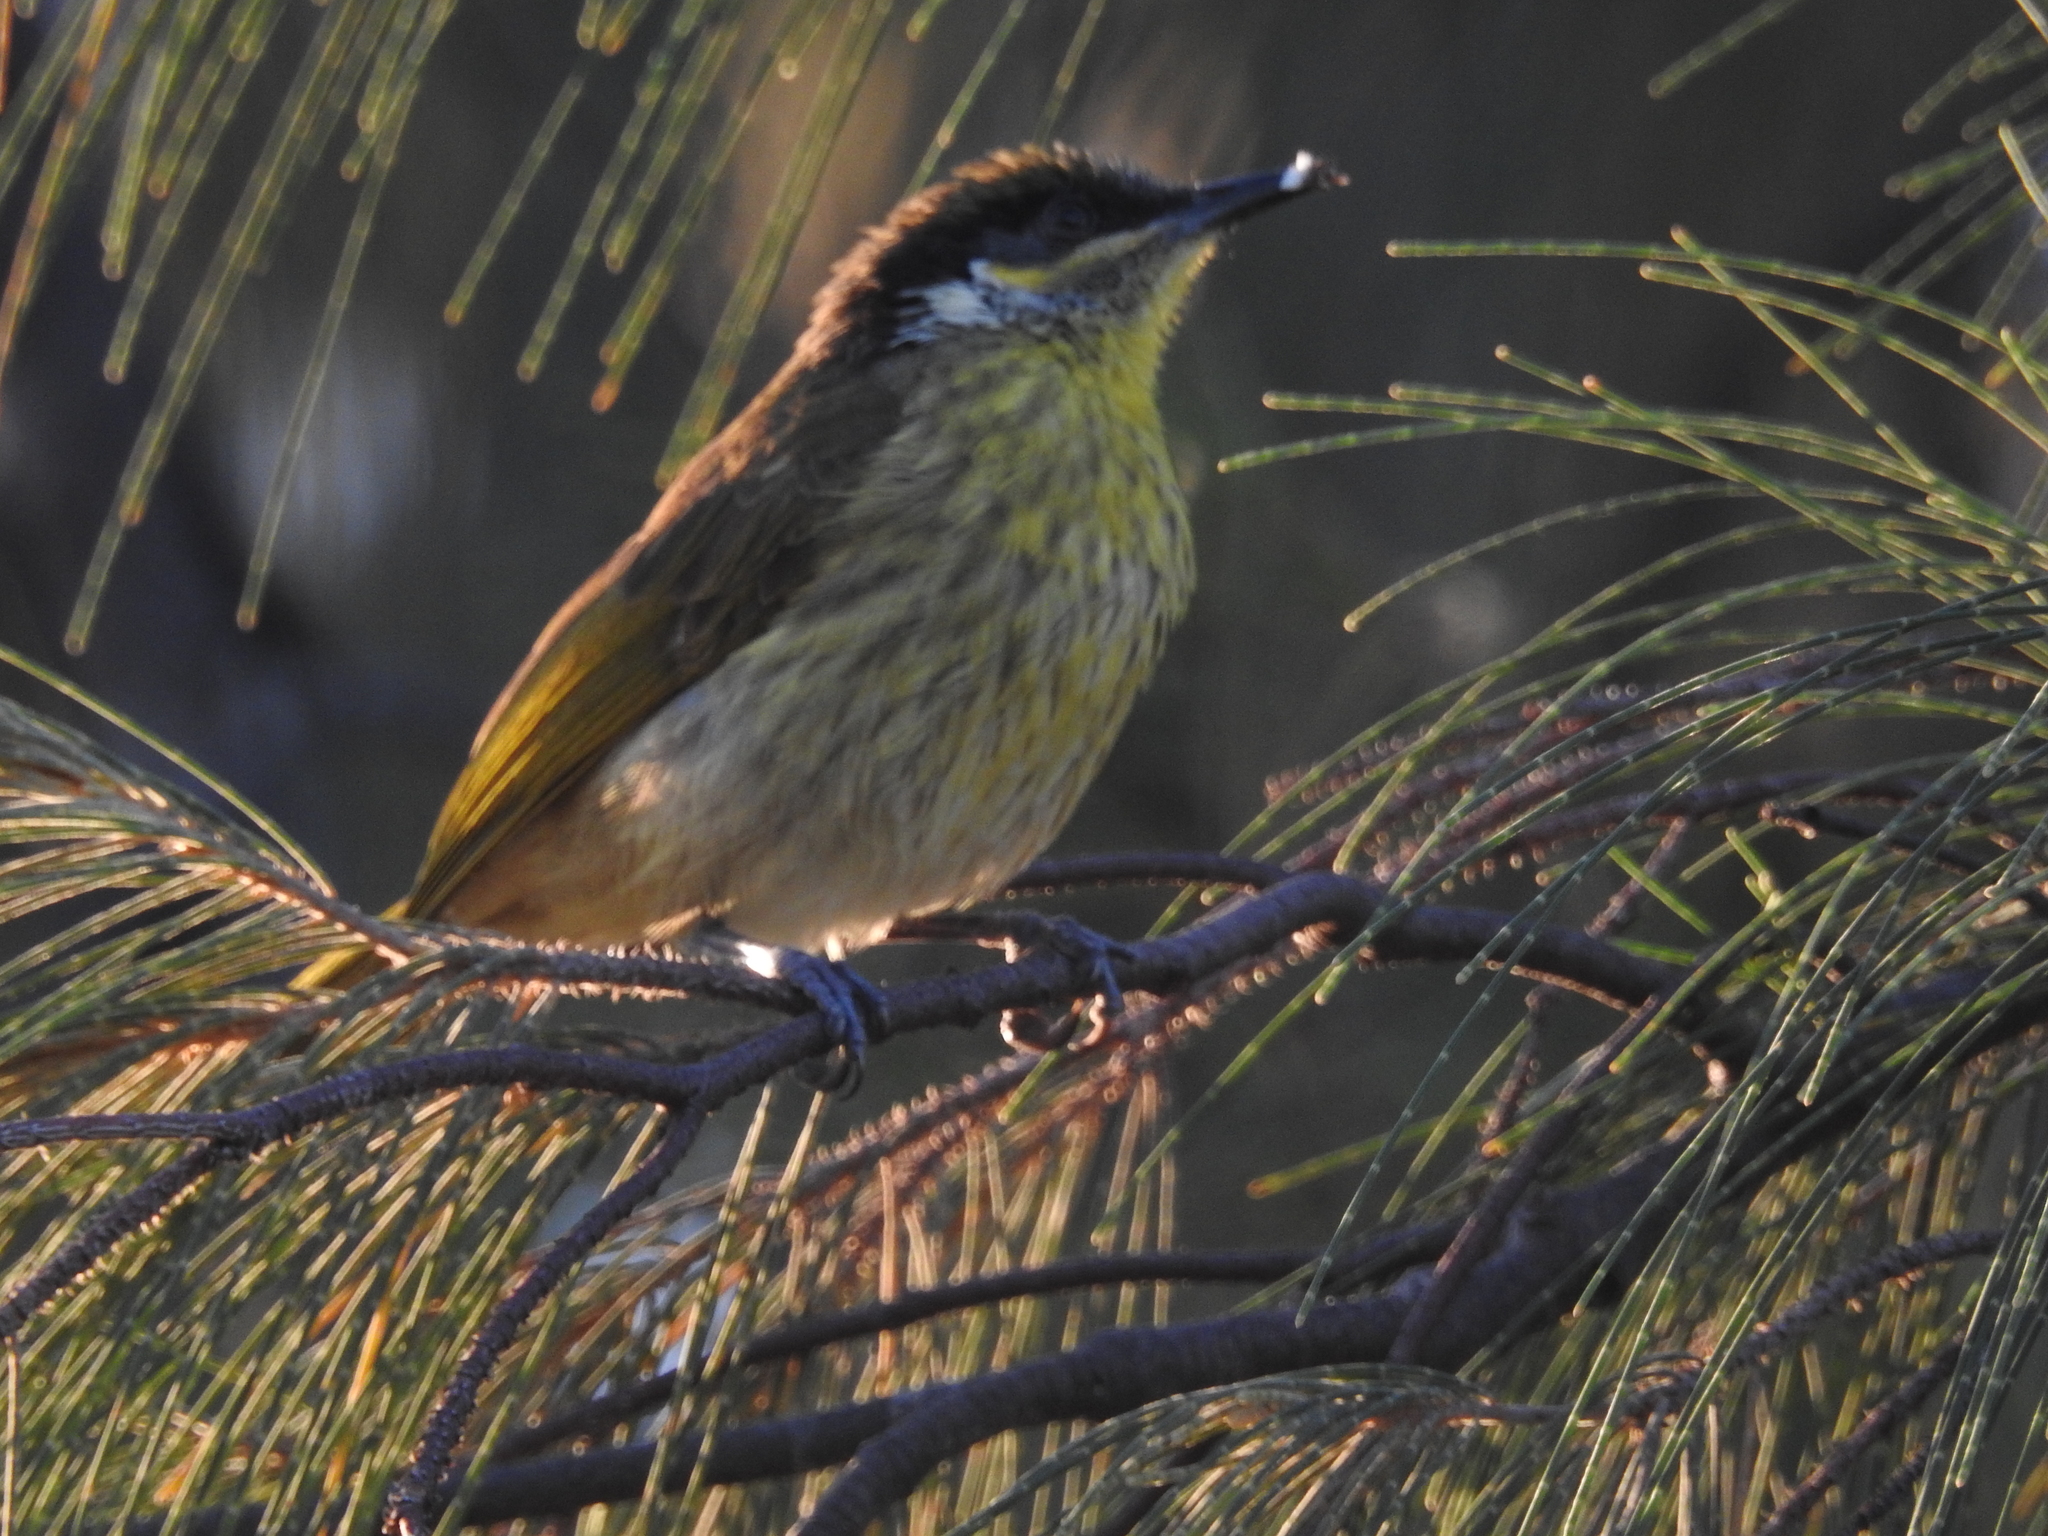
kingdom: Animalia
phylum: Chordata
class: Aves
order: Passeriformes
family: Meliphagidae
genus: Gavicalis
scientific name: Gavicalis versicolor
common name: Varied honeyeater
